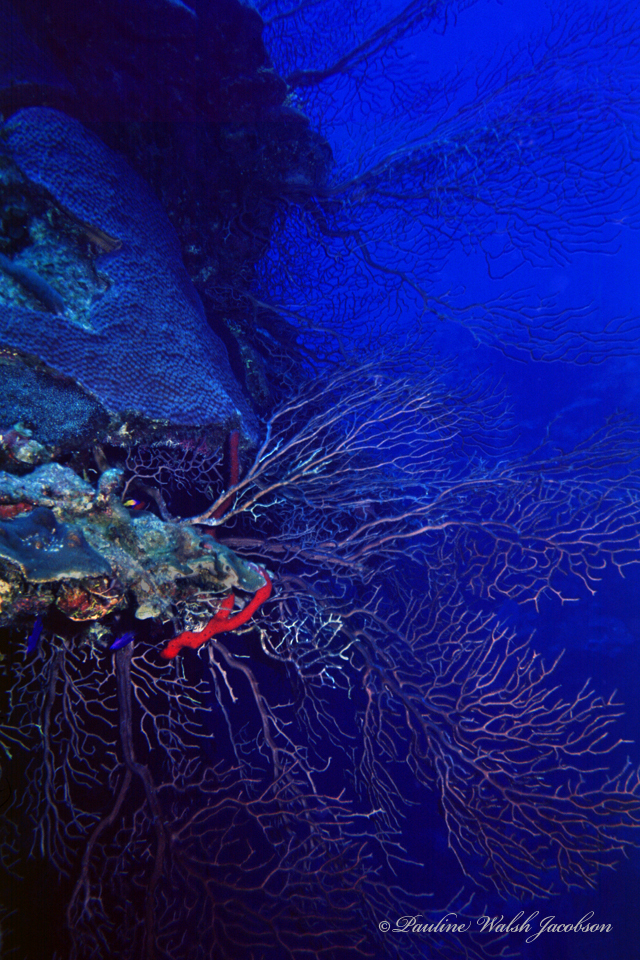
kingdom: Animalia
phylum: Cnidaria
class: Anthozoa
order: Malacalcyonacea
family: Melithaeidae
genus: Iciligorgia
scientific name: Iciligorgia schrammi
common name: Black sea fan
